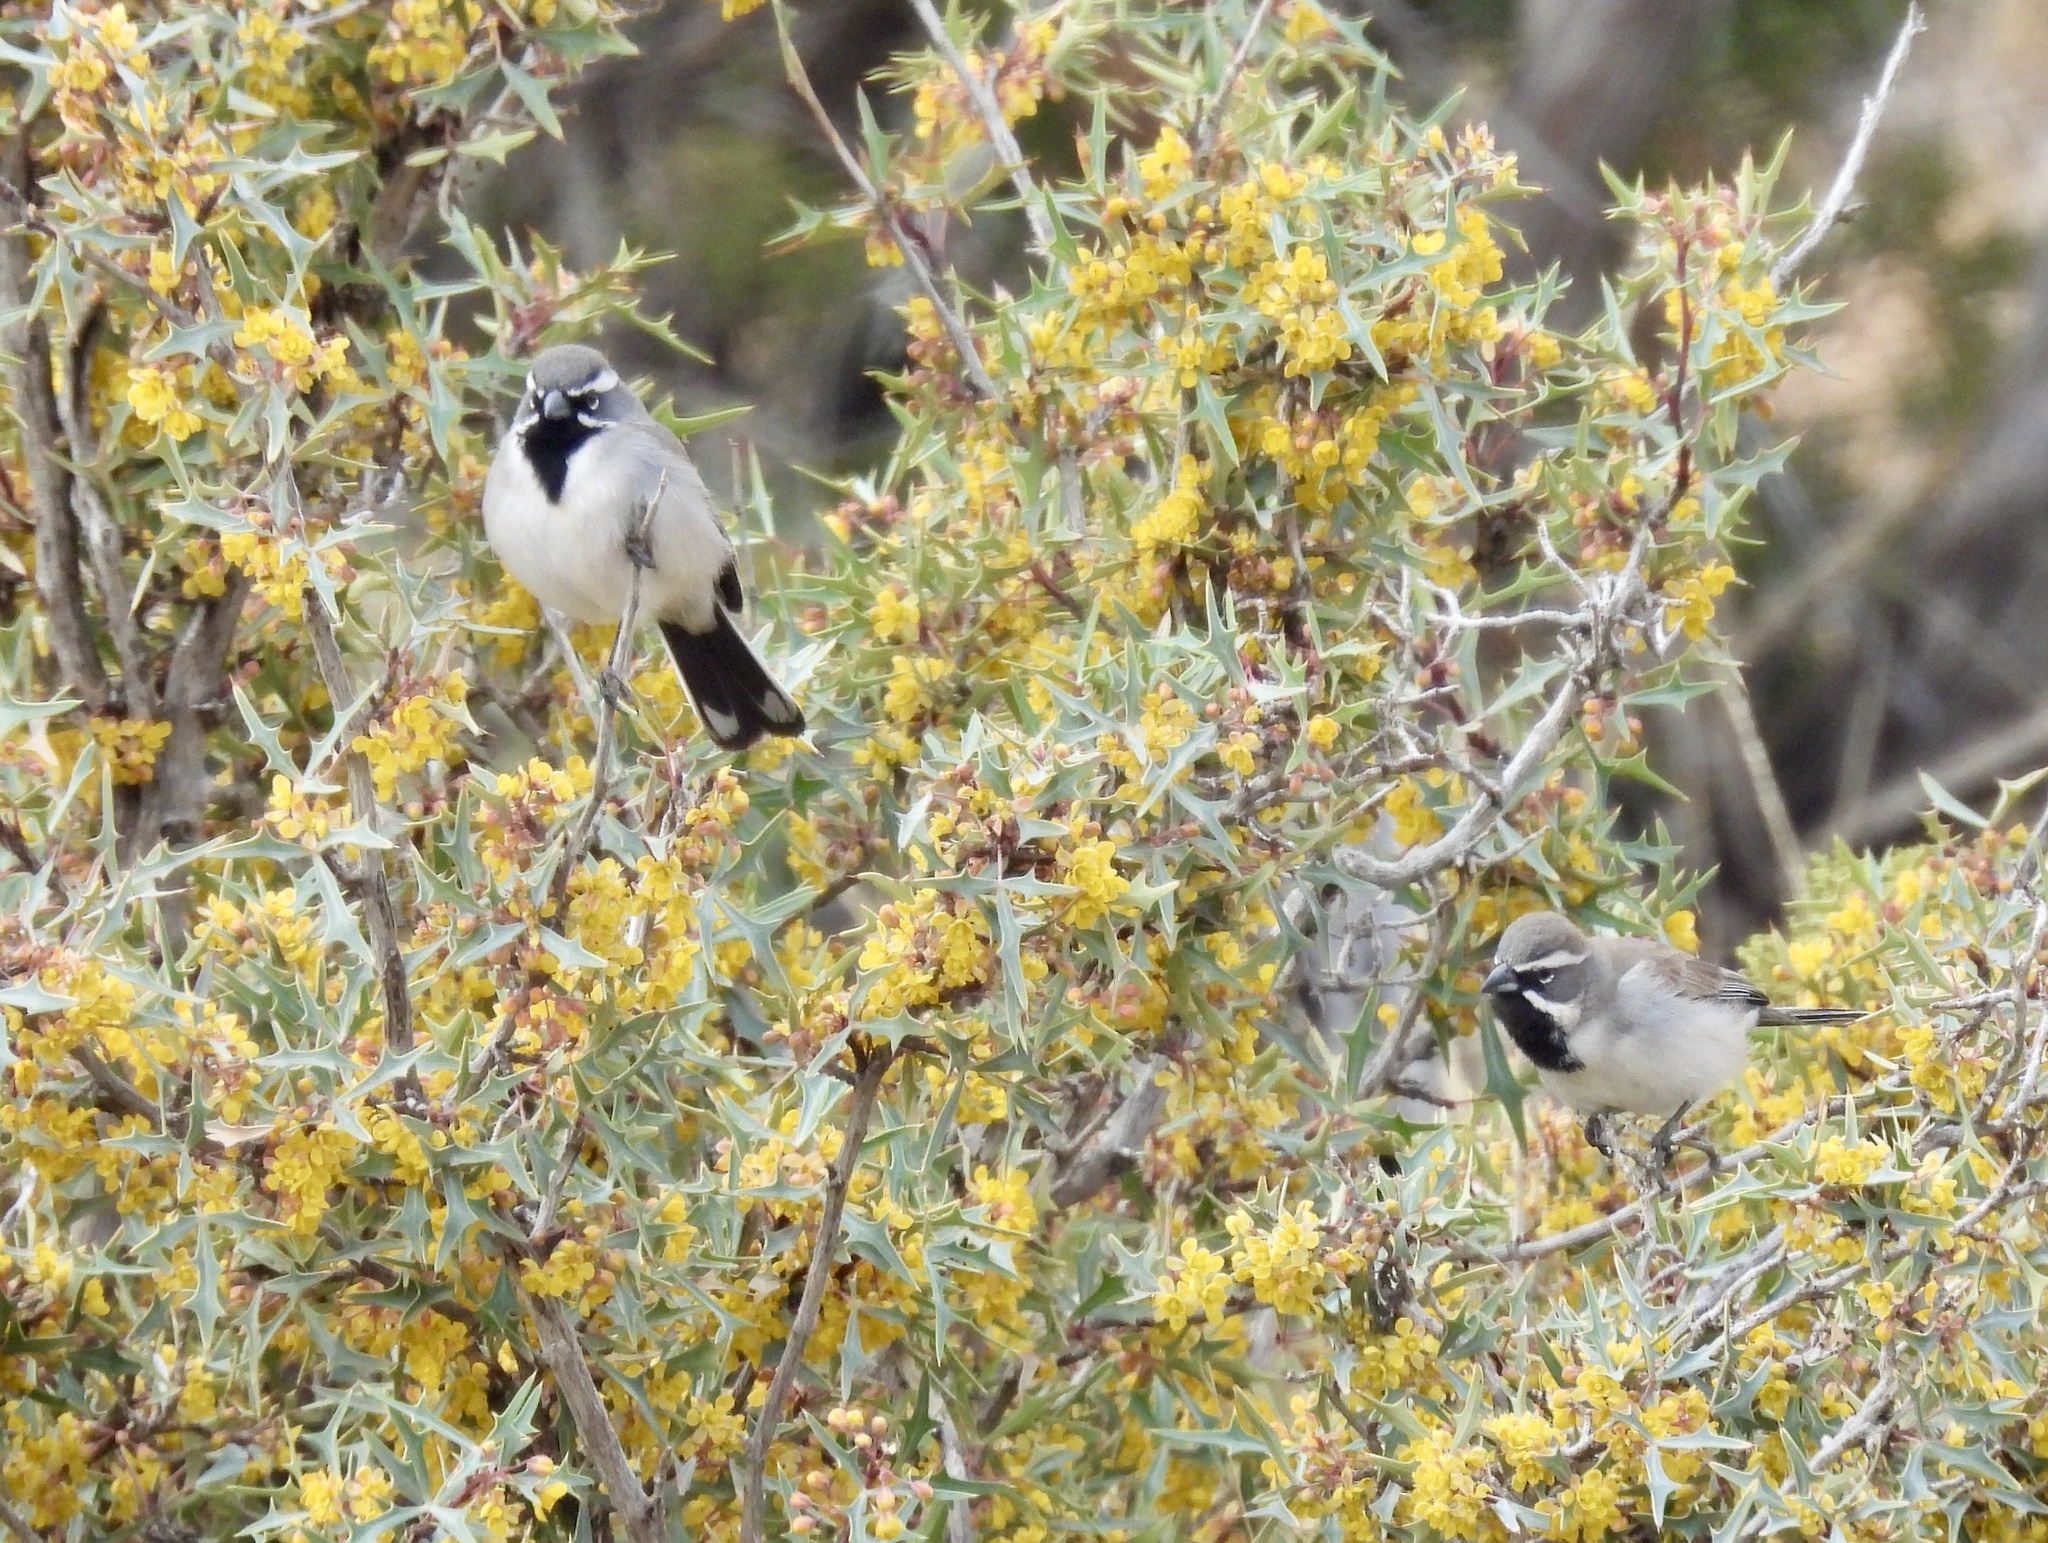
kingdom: Animalia
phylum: Chordata
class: Aves
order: Passeriformes
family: Passerellidae
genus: Amphispiza
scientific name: Amphispiza bilineata
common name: Black-throated sparrow
